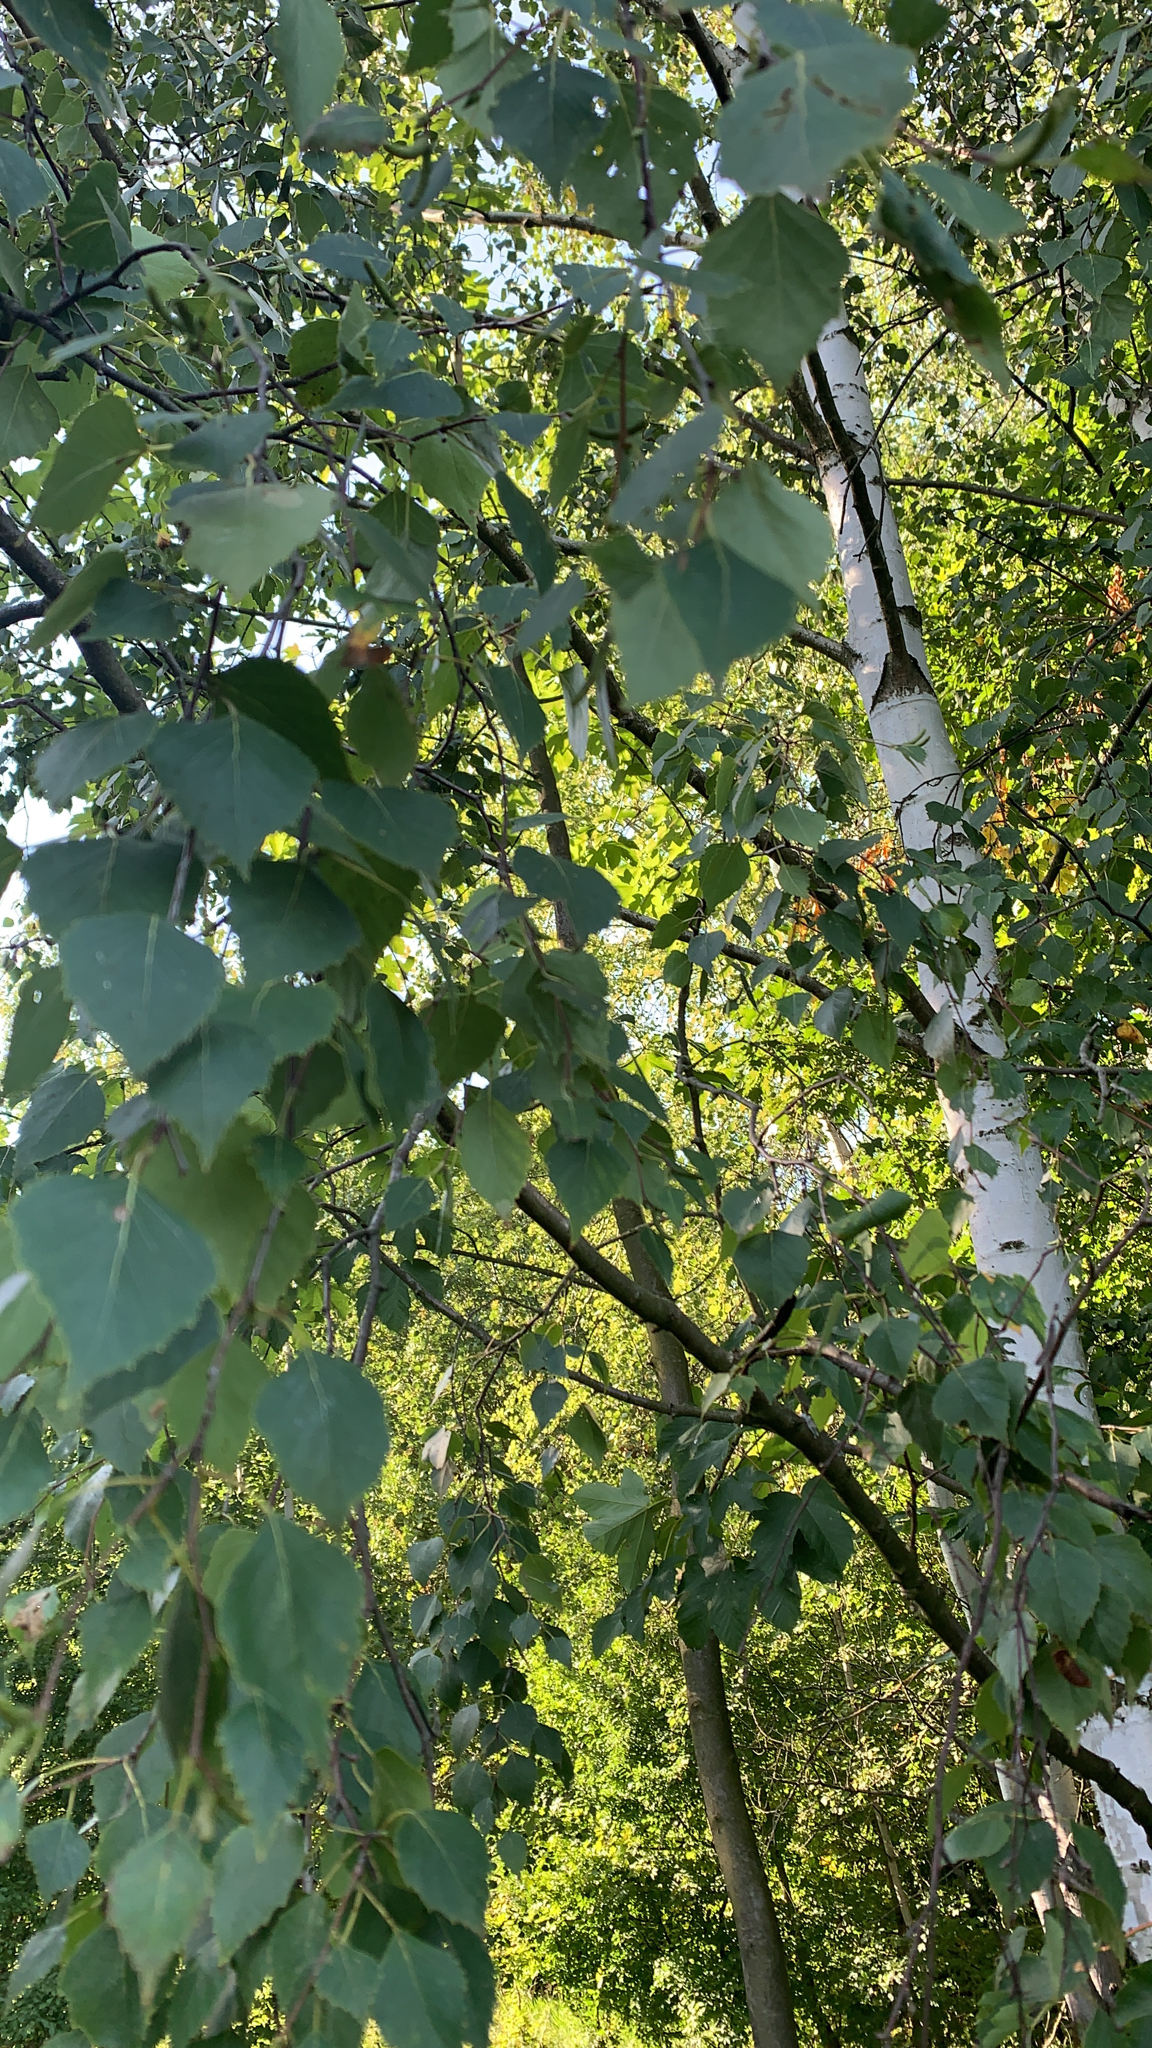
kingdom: Plantae
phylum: Tracheophyta
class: Magnoliopsida
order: Fagales
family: Betulaceae
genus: Betula
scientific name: Betula pendula
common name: Silver birch
